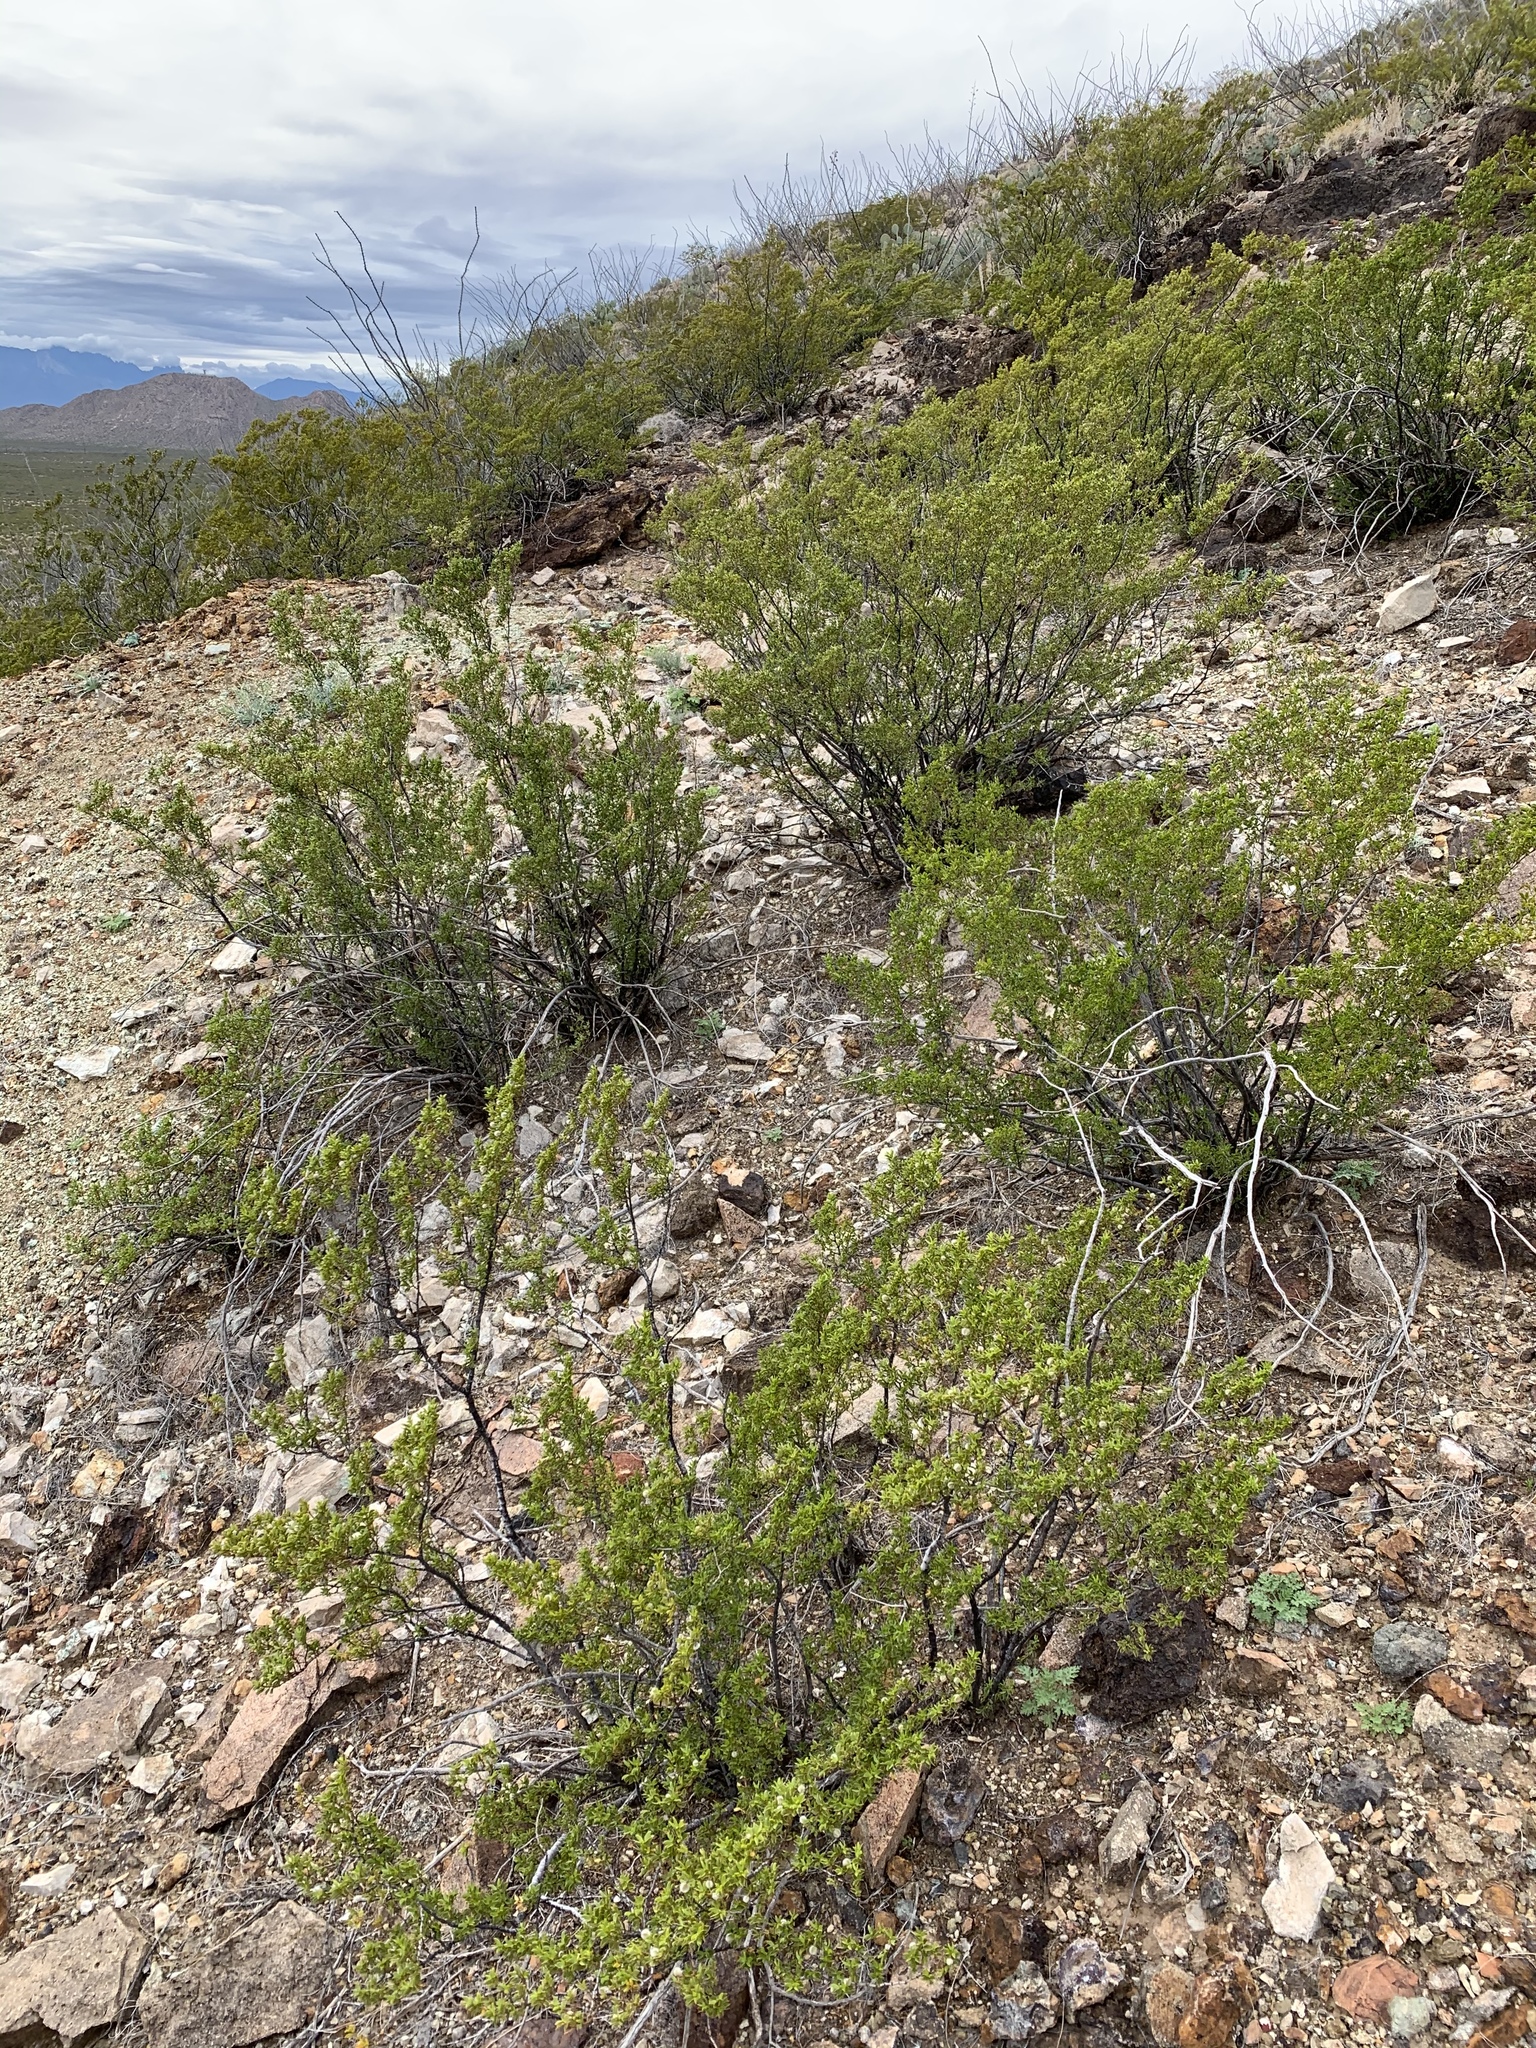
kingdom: Plantae
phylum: Tracheophyta
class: Magnoliopsida
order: Zygophyllales
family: Zygophyllaceae
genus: Larrea
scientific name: Larrea tridentata
